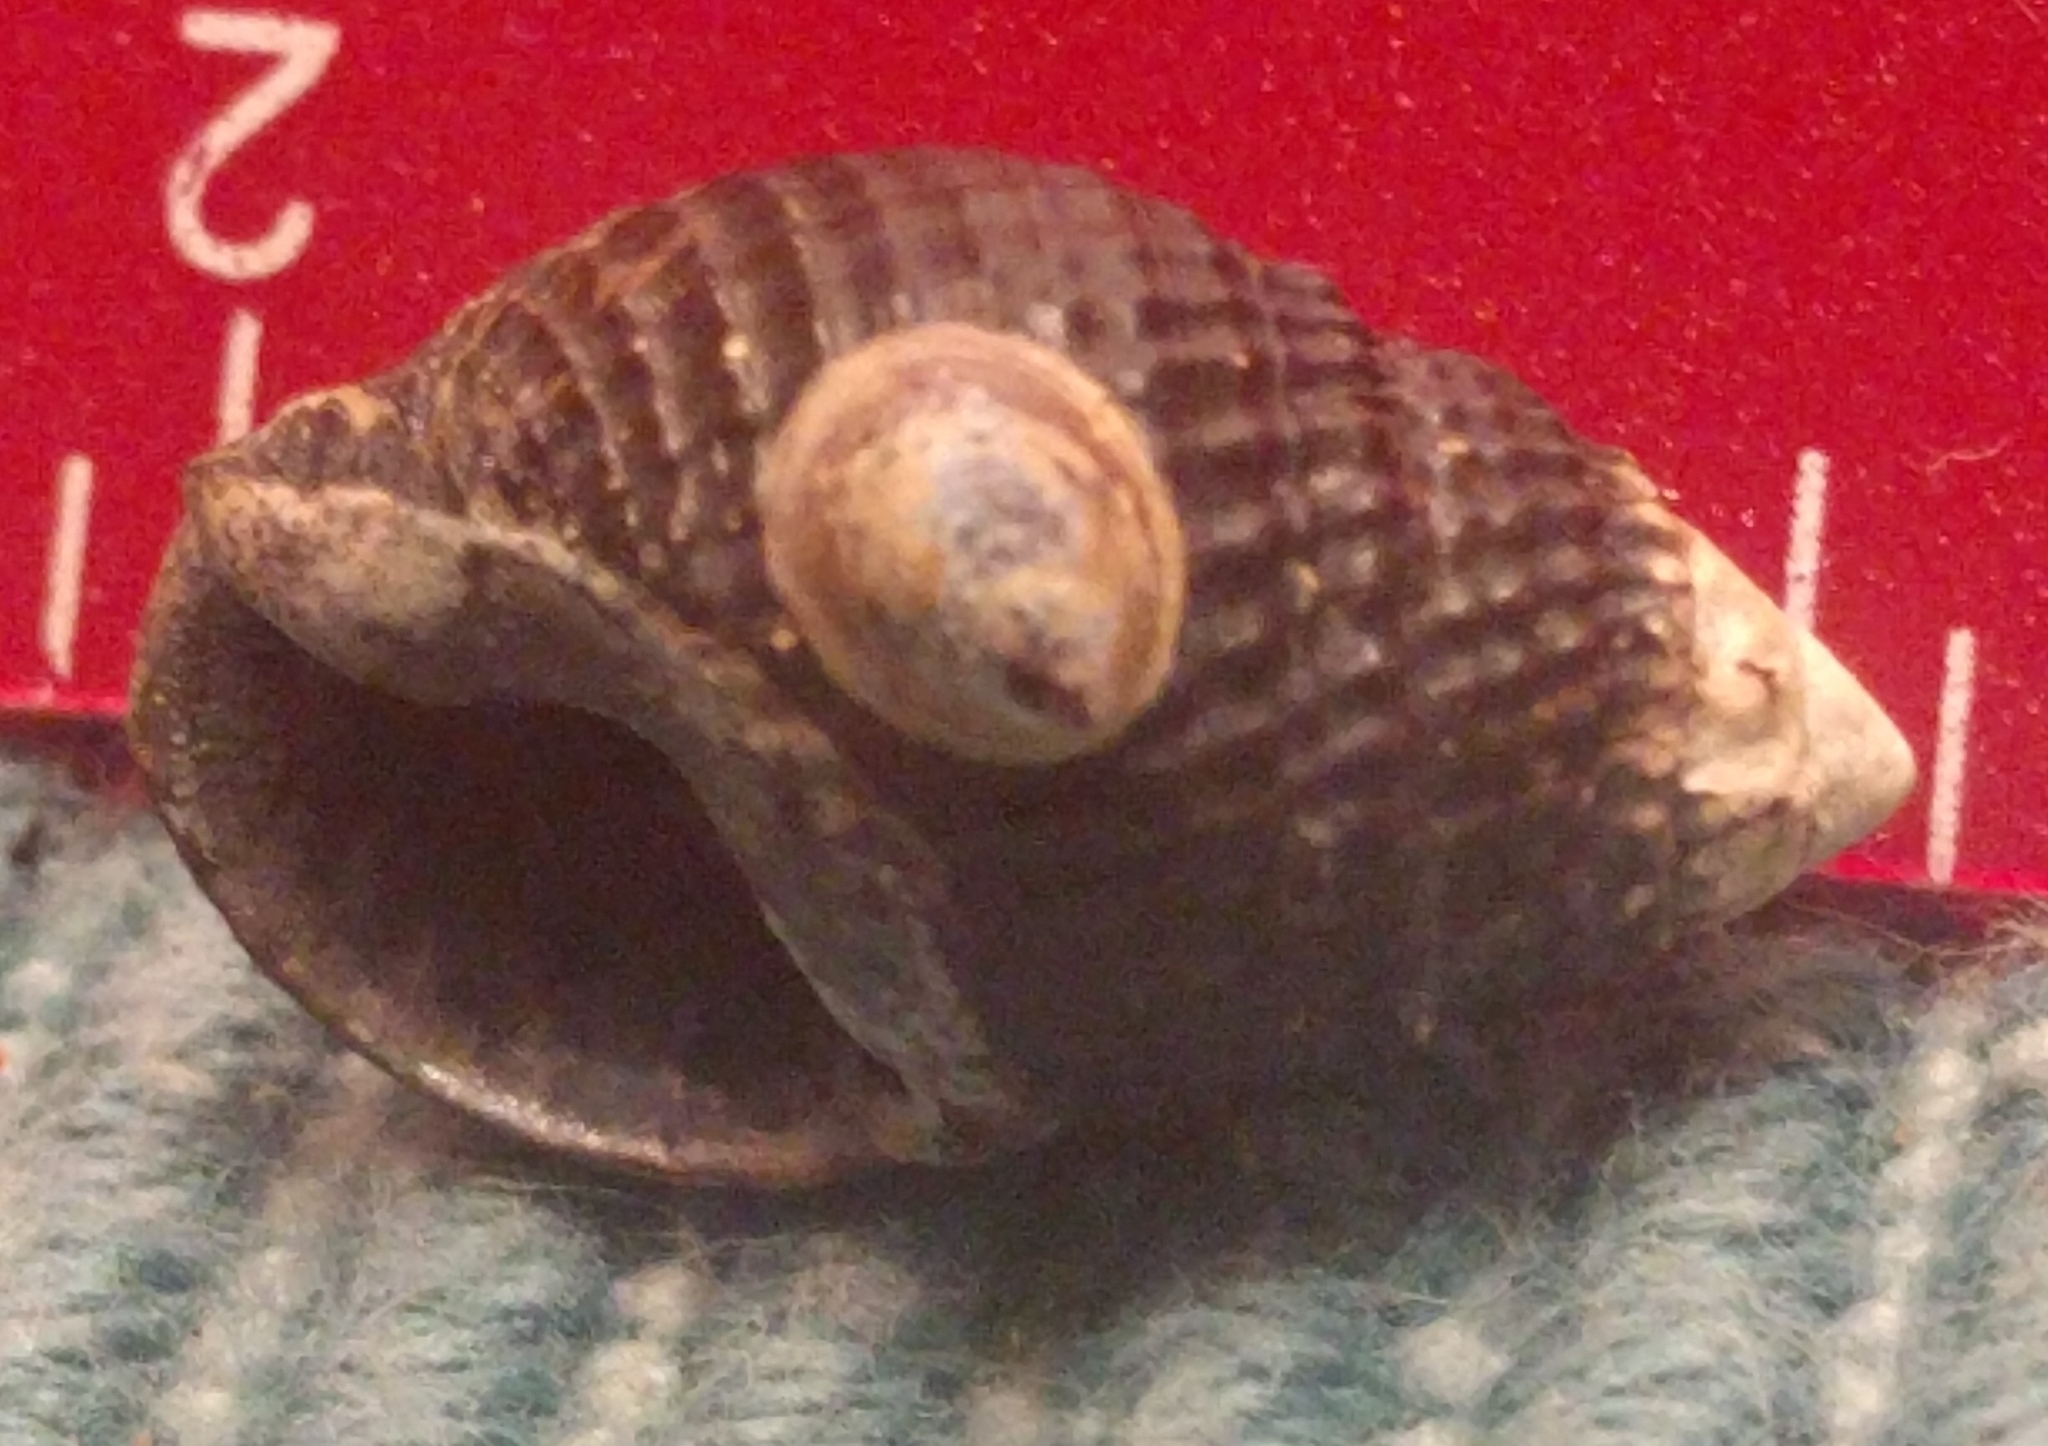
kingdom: Animalia
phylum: Mollusca
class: Gastropoda
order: Littorinimorpha
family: Calyptraeidae
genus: Crepidula
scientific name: Crepidula convexa
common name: Convex slippersnail
